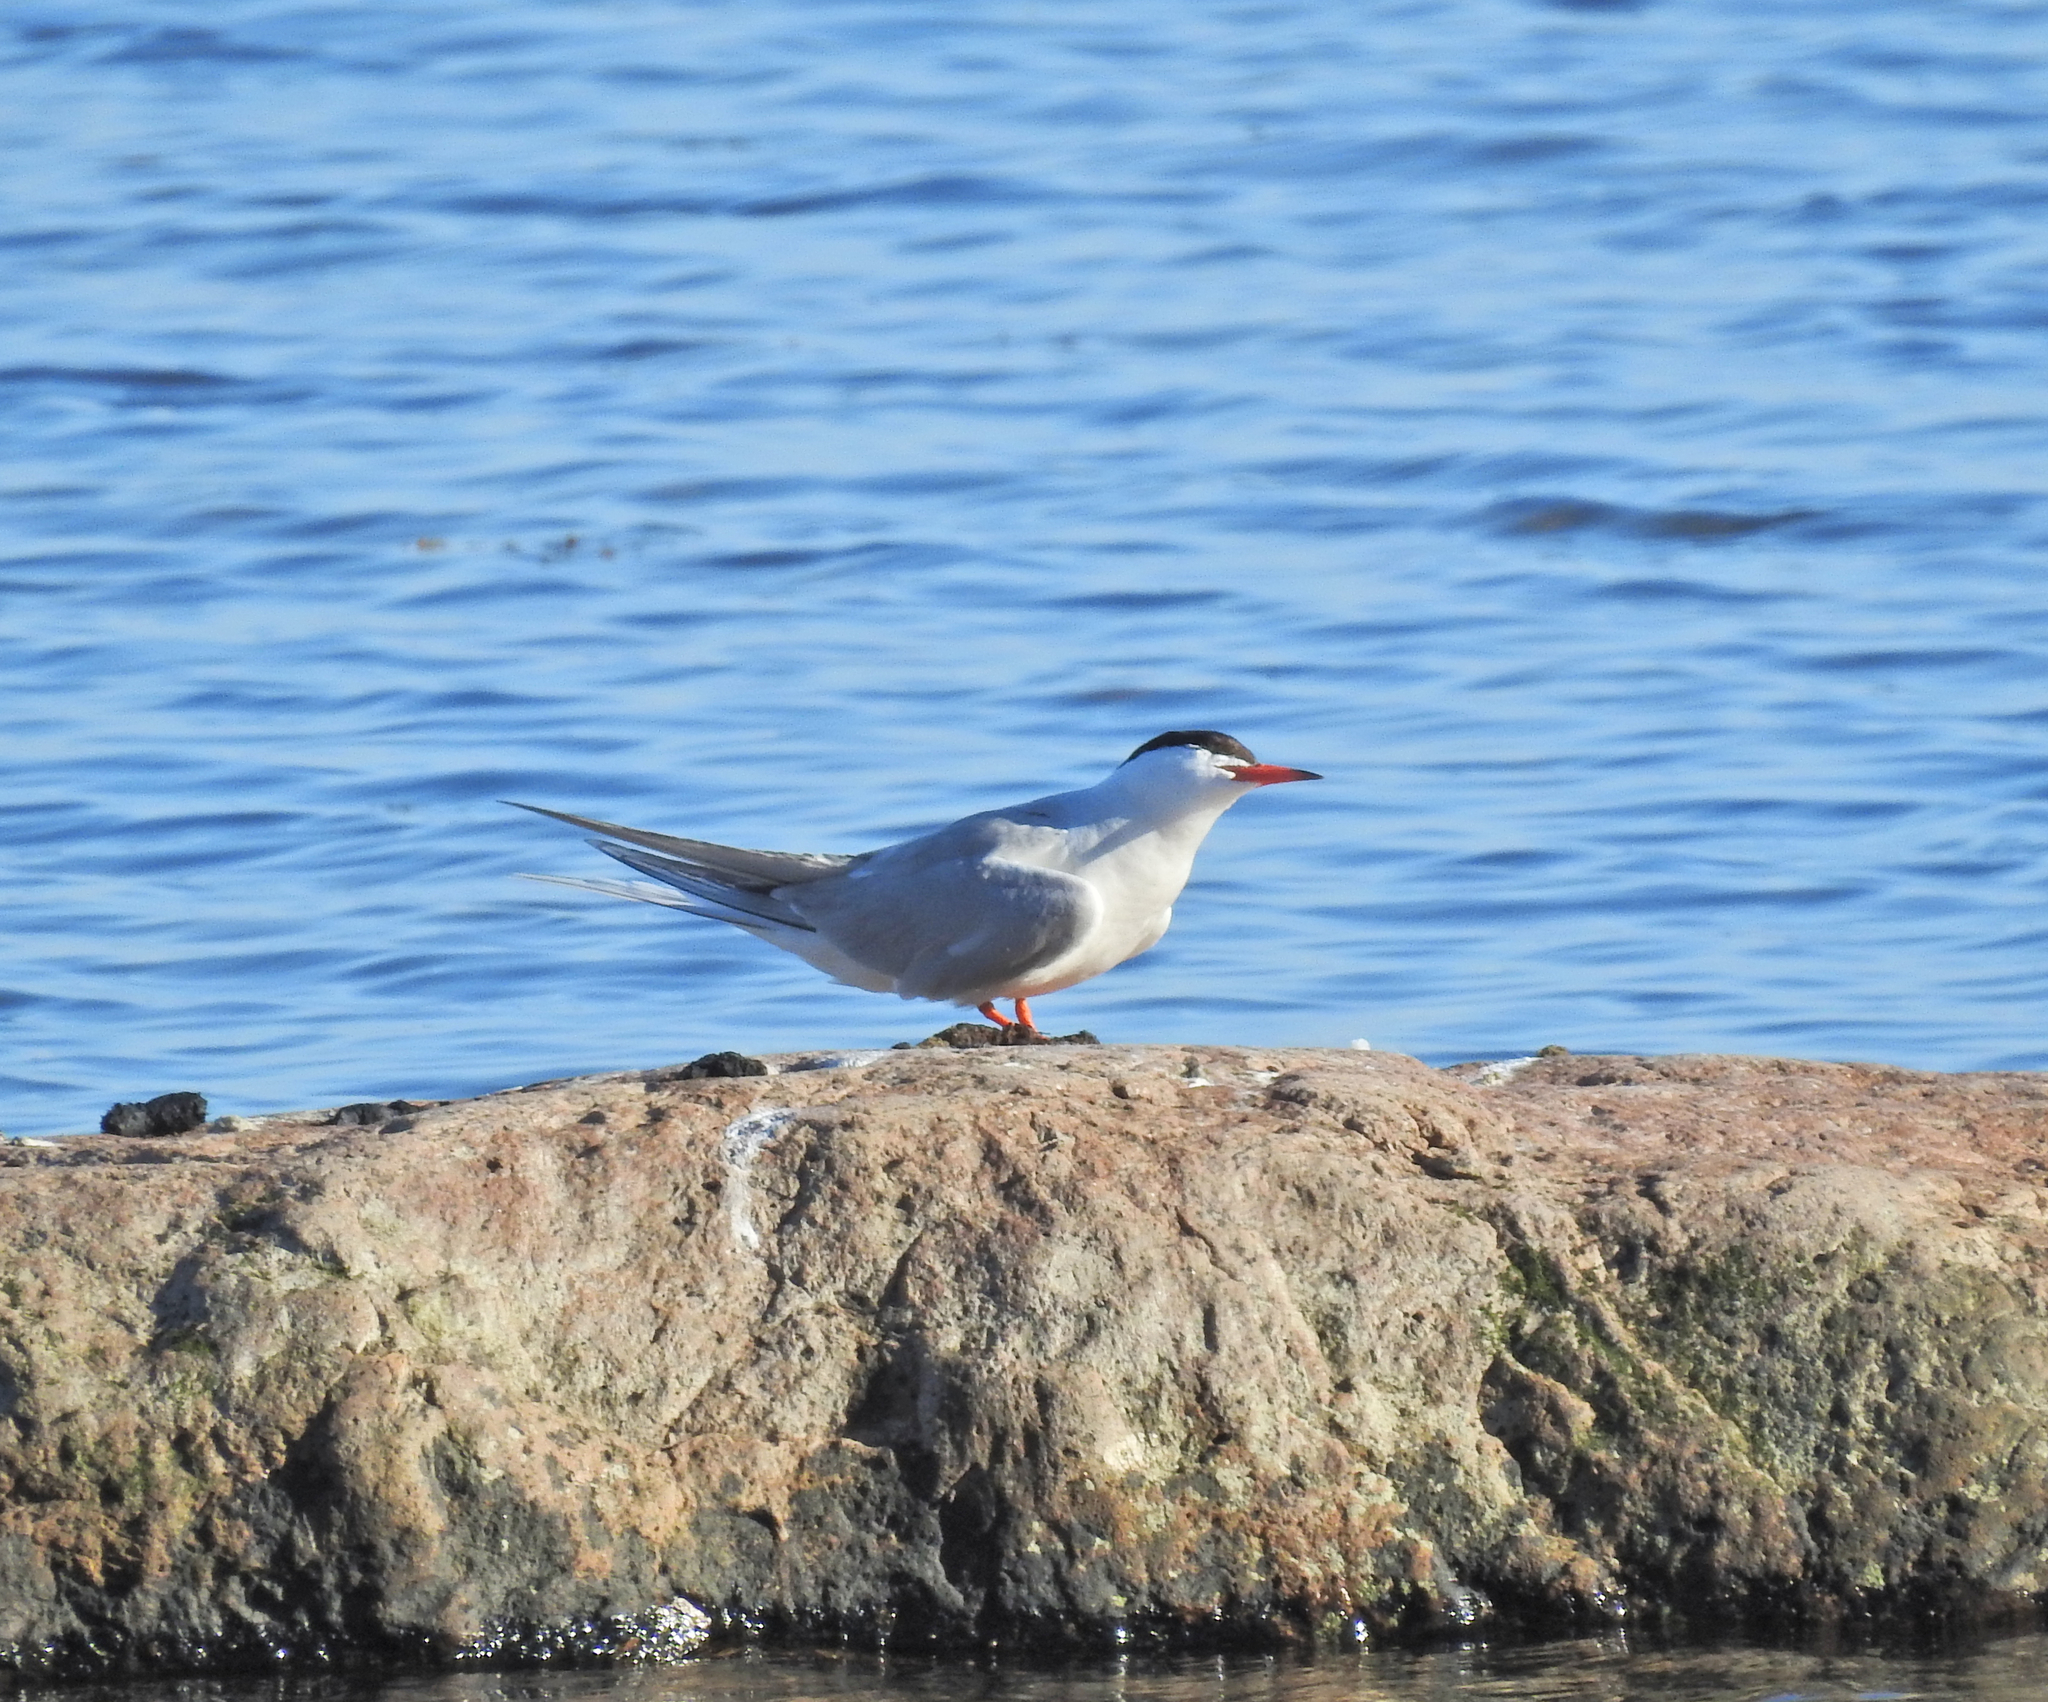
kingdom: Animalia
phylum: Chordata
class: Aves
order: Charadriiformes
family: Laridae
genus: Sterna
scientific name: Sterna hirundo
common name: Common tern
